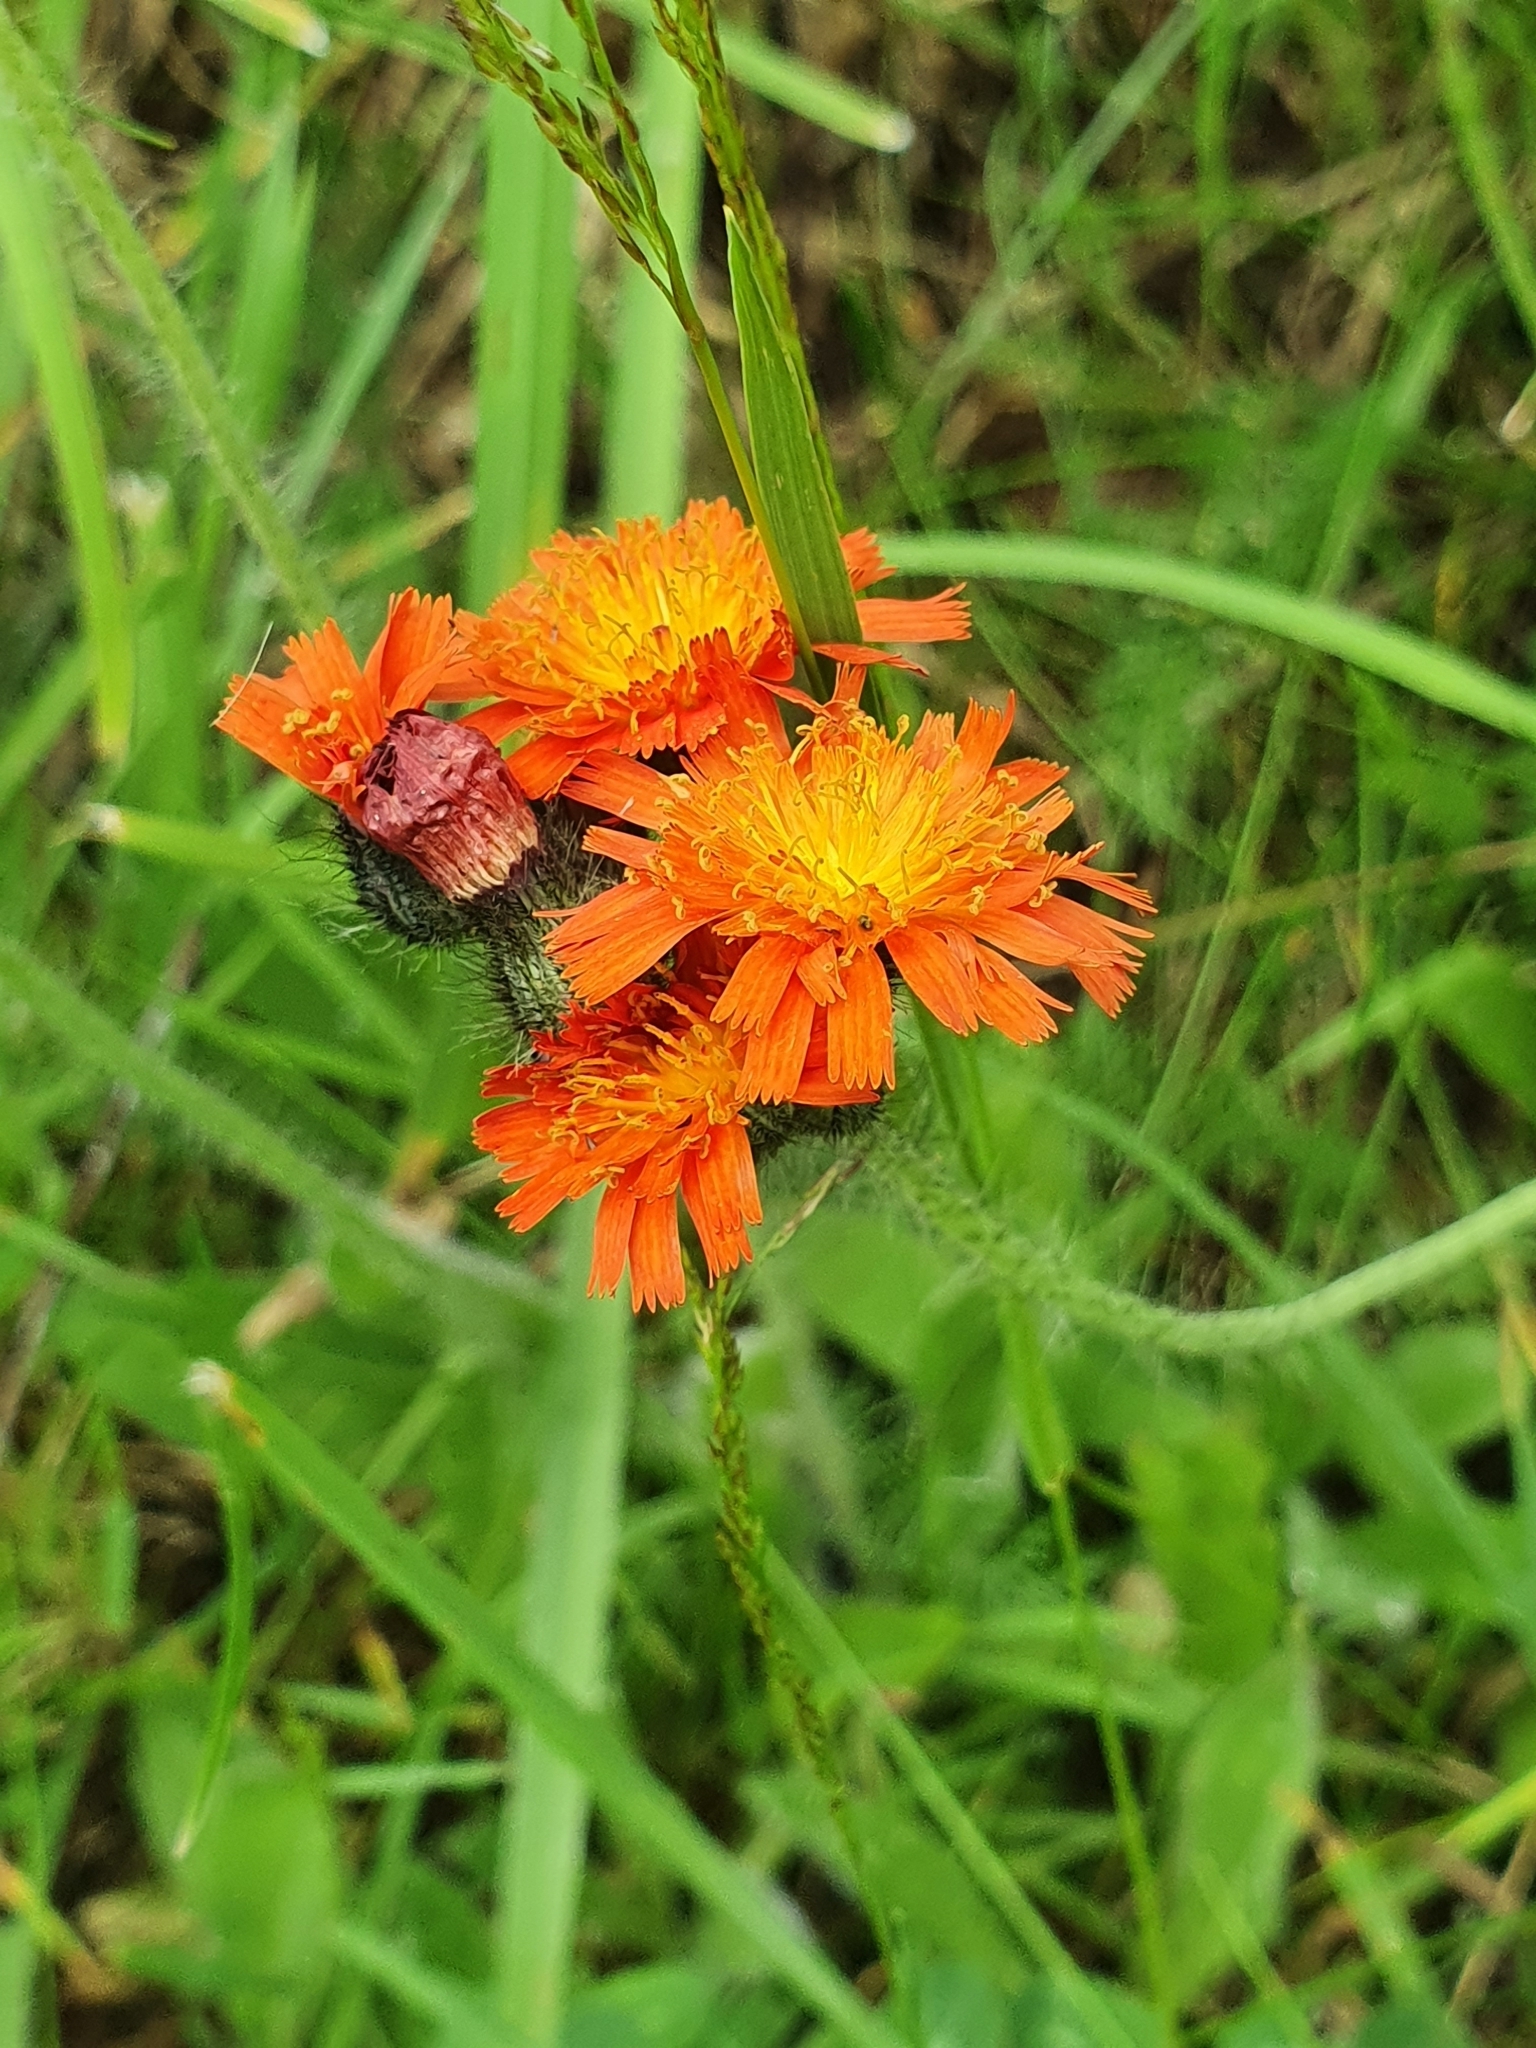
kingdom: Plantae
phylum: Tracheophyta
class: Magnoliopsida
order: Asterales
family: Asteraceae
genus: Pilosella
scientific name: Pilosella aurantiaca
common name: Fox-and-cubs
